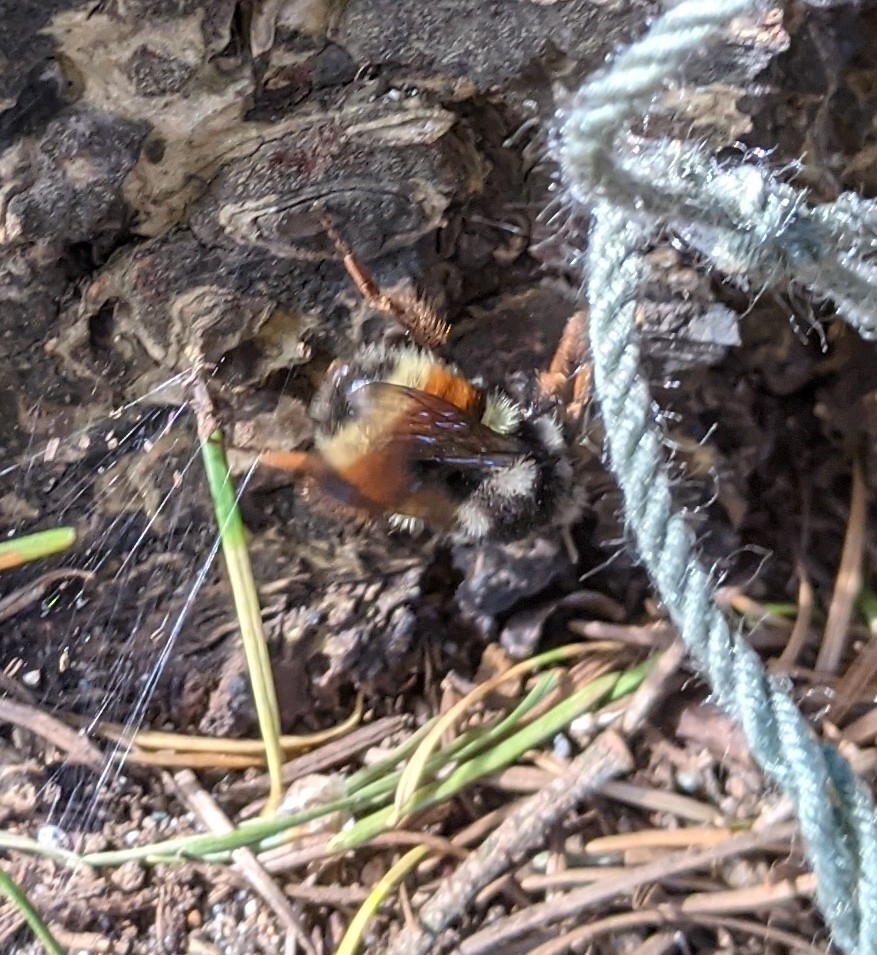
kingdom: Animalia
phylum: Arthropoda
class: Insecta
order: Hymenoptera
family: Apidae
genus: Bombus
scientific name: Bombus vancouverensis
